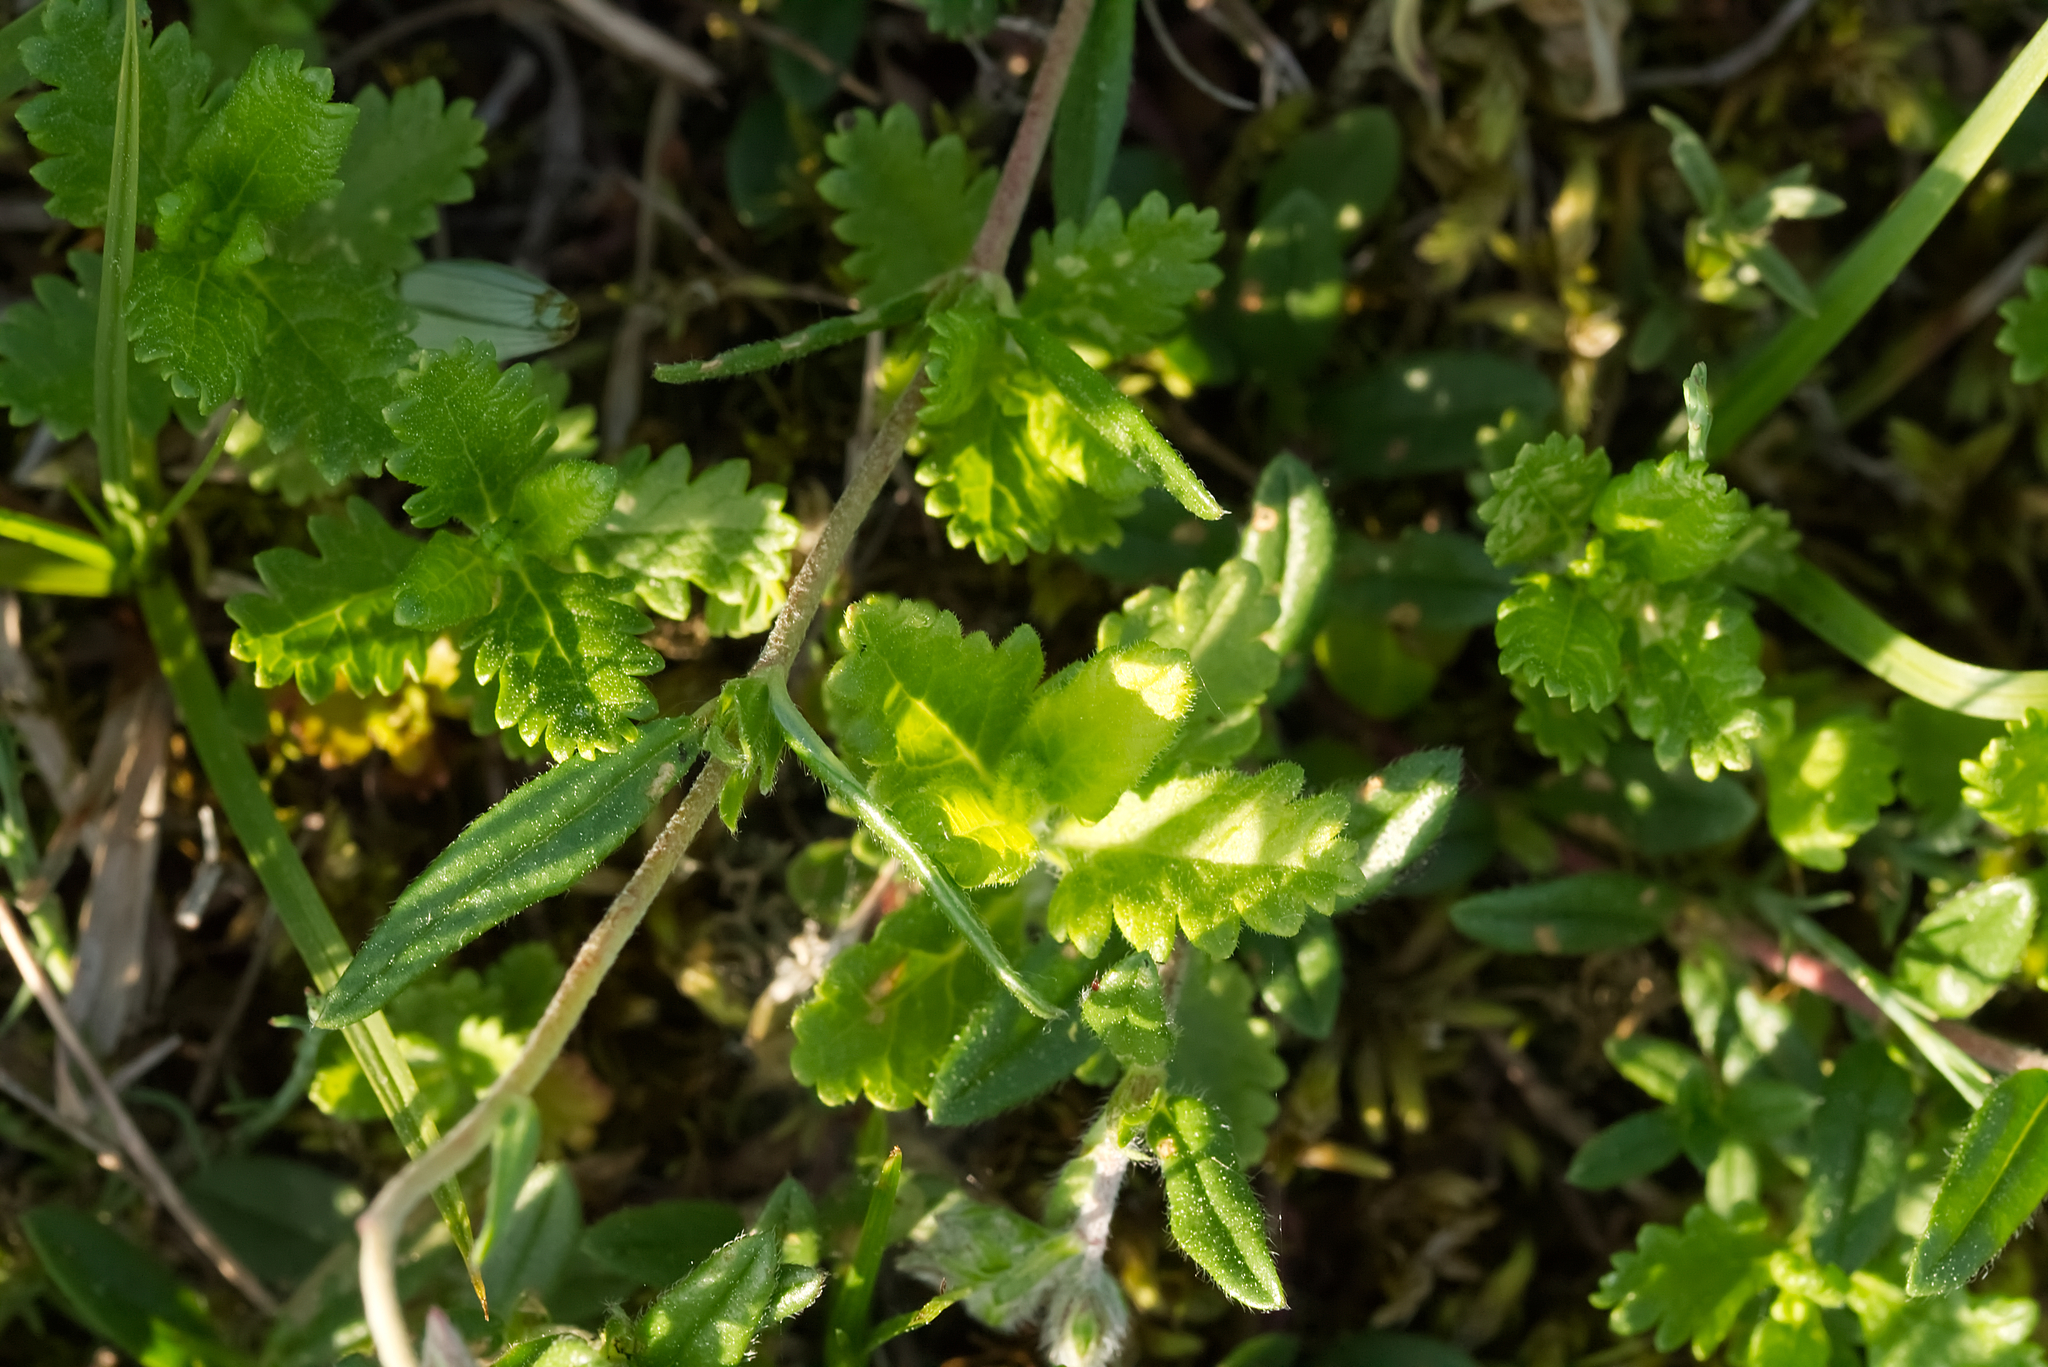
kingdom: Plantae
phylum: Tracheophyta
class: Magnoliopsida
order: Lamiales
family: Lamiaceae
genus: Teucrium
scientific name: Teucrium chamaedrys
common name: Wall germander
